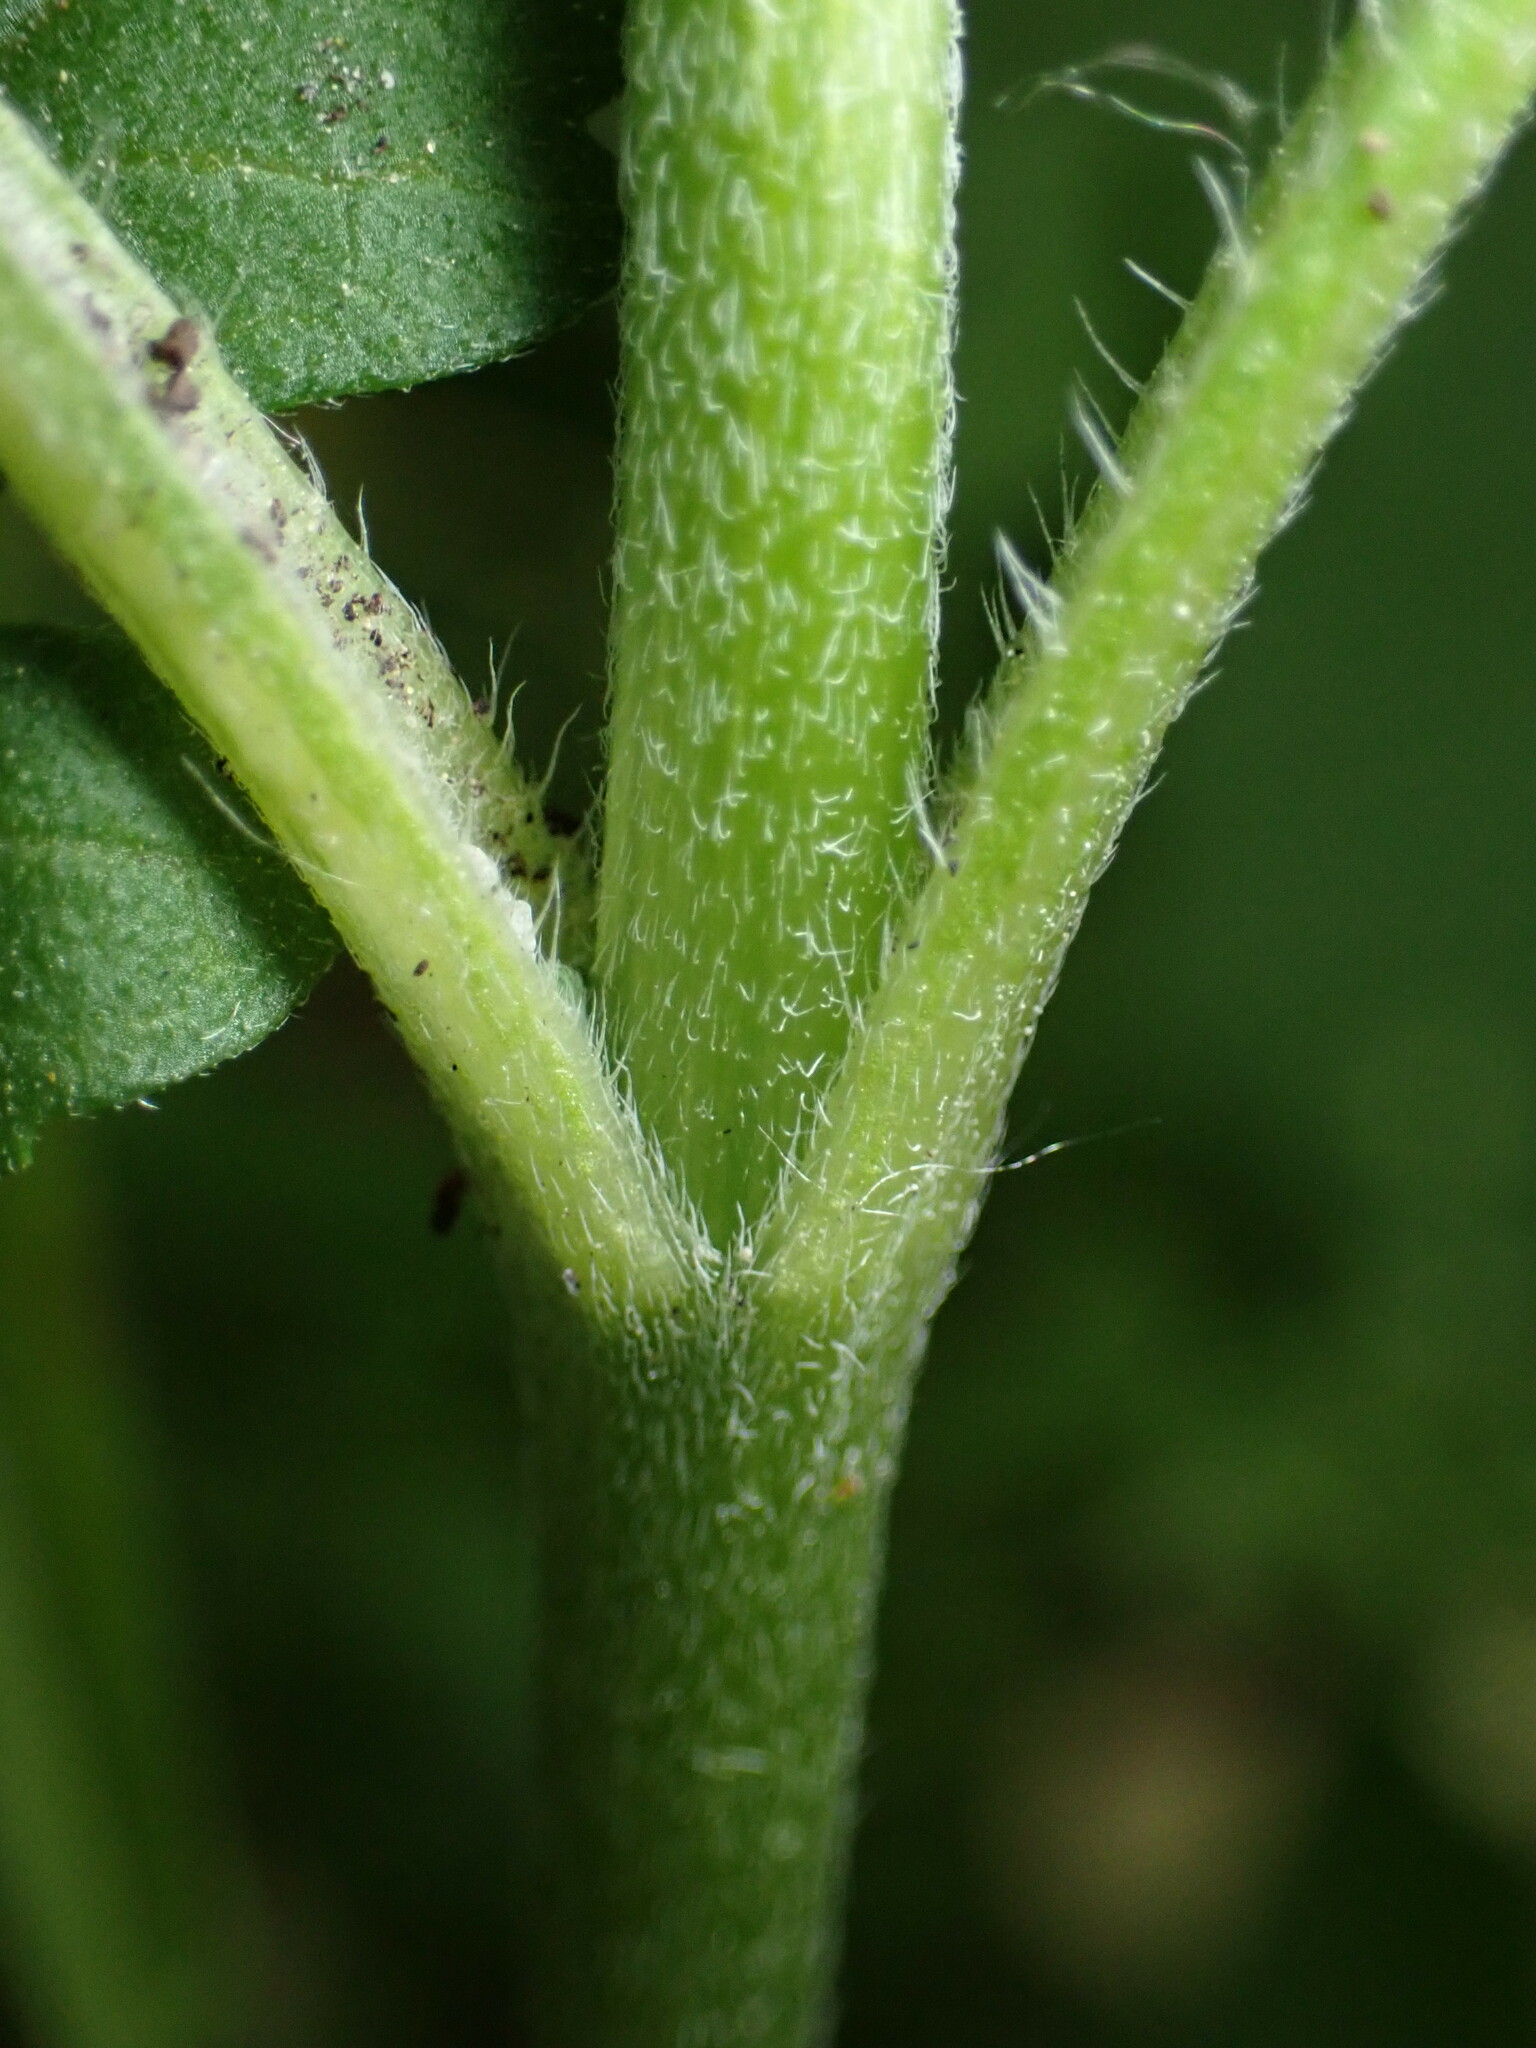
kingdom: Plantae
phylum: Tracheophyta
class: Magnoliopsida
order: Asterales
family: Asteraceae
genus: Ambrosia
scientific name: Ambrosia artemisiifolia
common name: Annual ragweed
